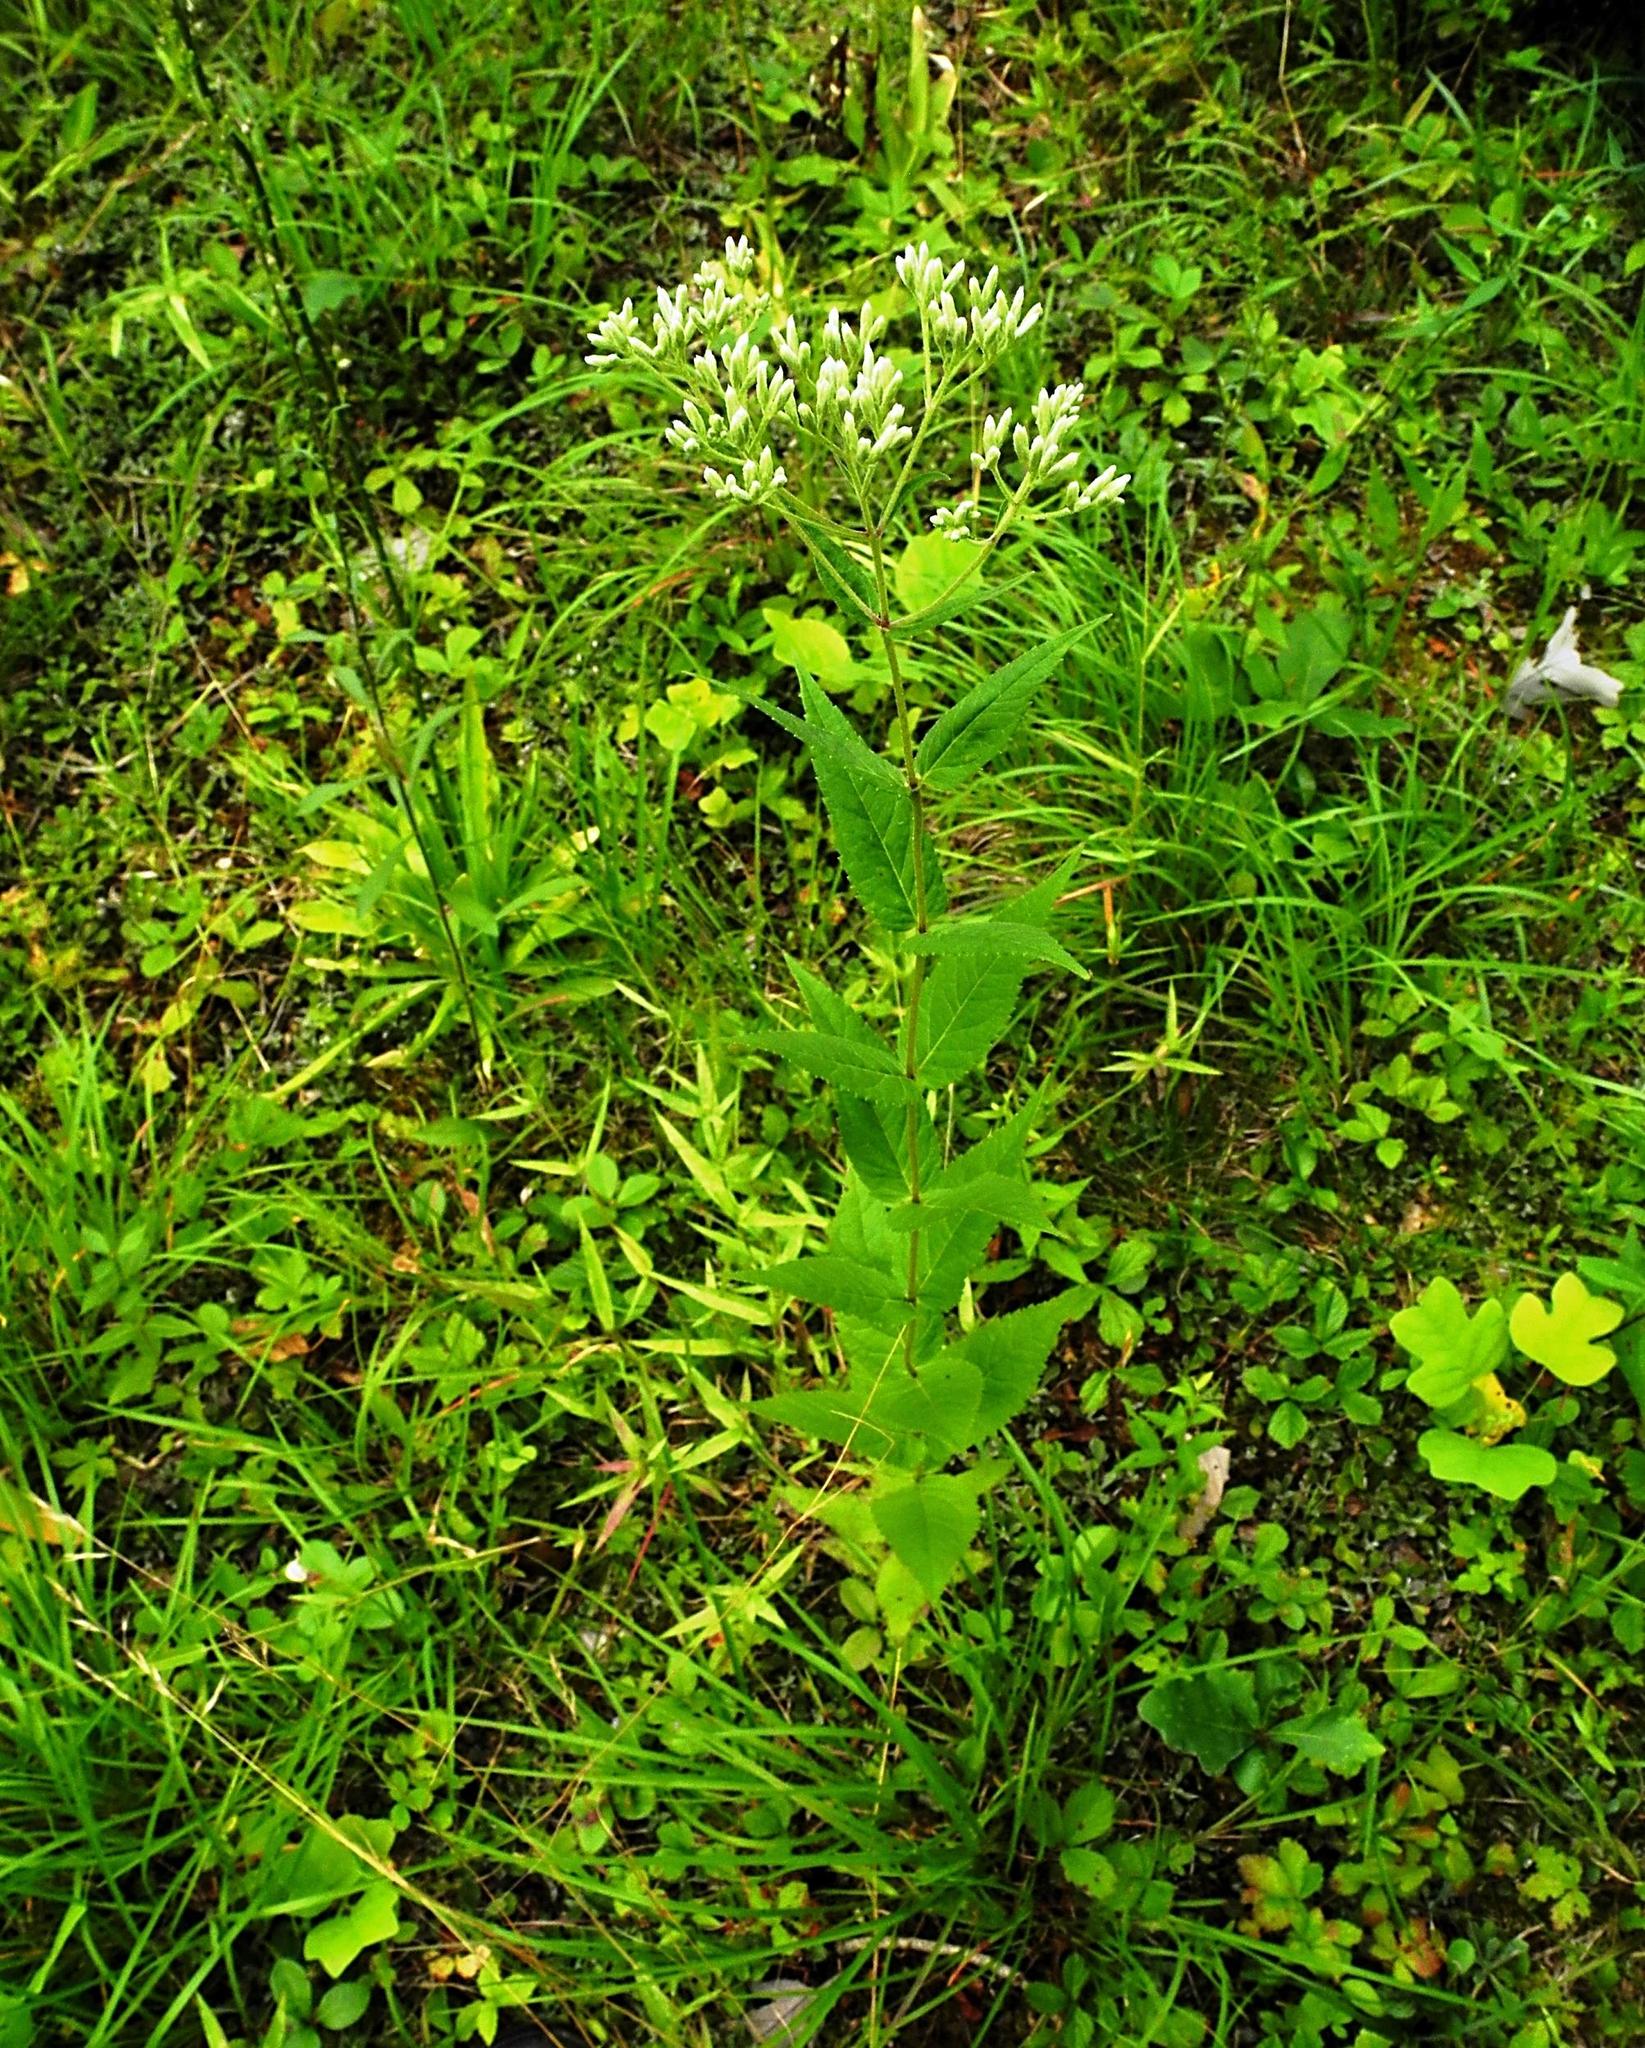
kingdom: Plantae
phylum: Tracheophyta
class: Magnoliopsida
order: Asterales
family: Asteraceae
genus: Eupatorium
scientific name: Eupatorium godfreyanum
